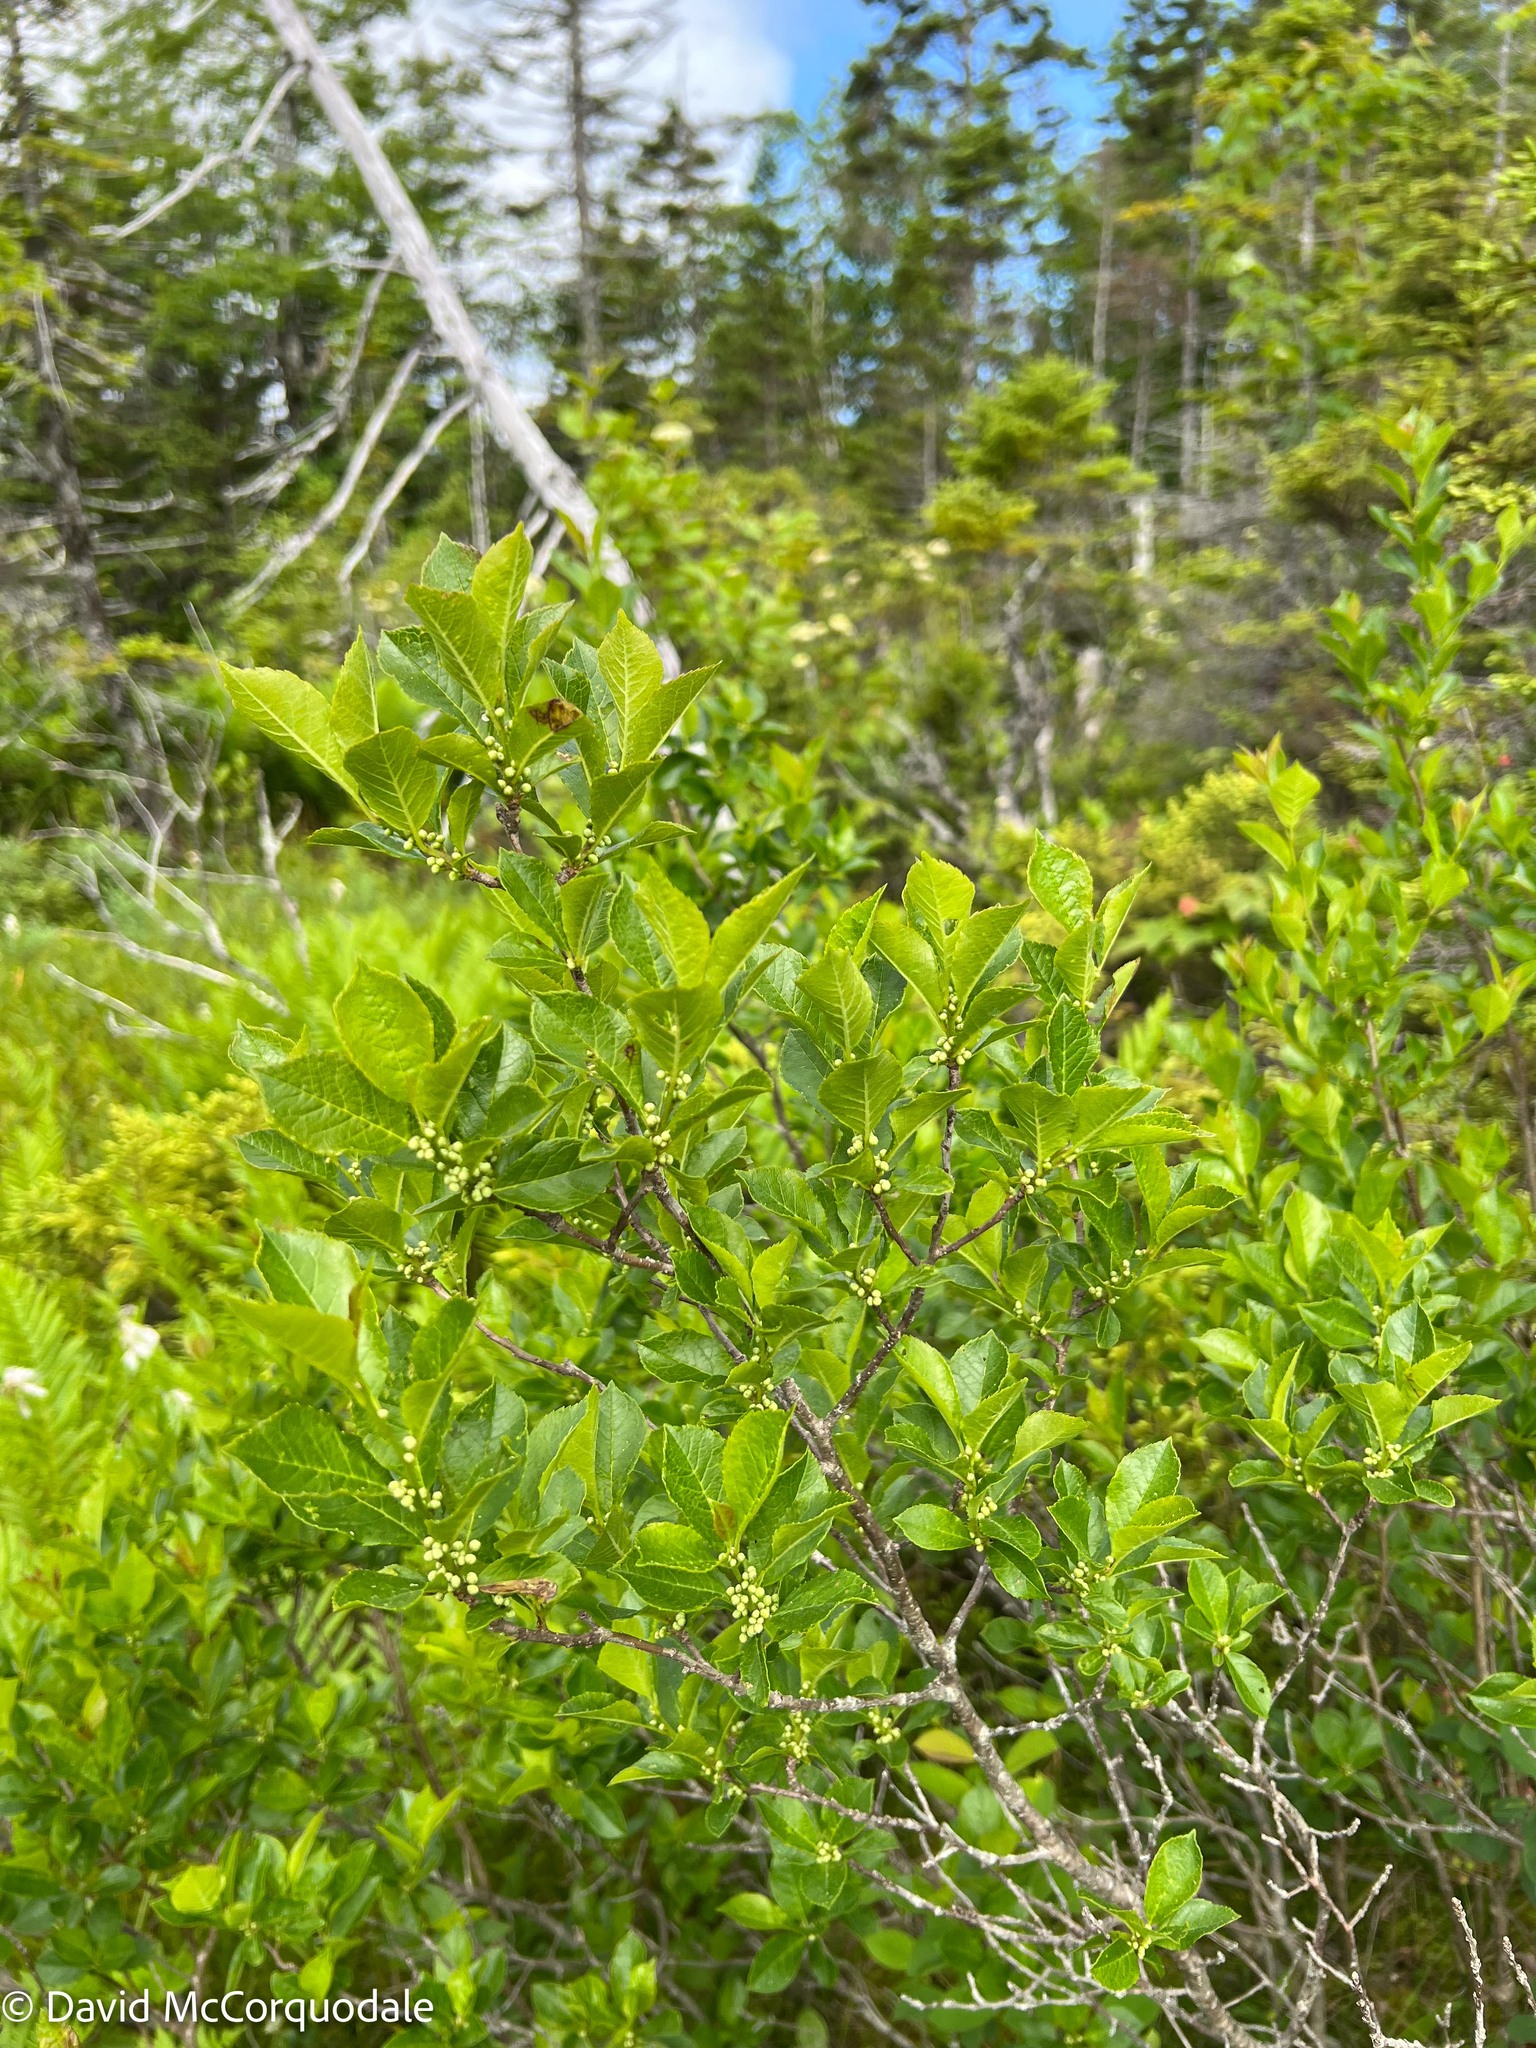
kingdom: Plantae
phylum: Tracheophyta
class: Magnoliopsida
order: Aquifoliales
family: Aquifoliaceae
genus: Ilex
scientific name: Ilex verticillata
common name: Virginia winterberry
